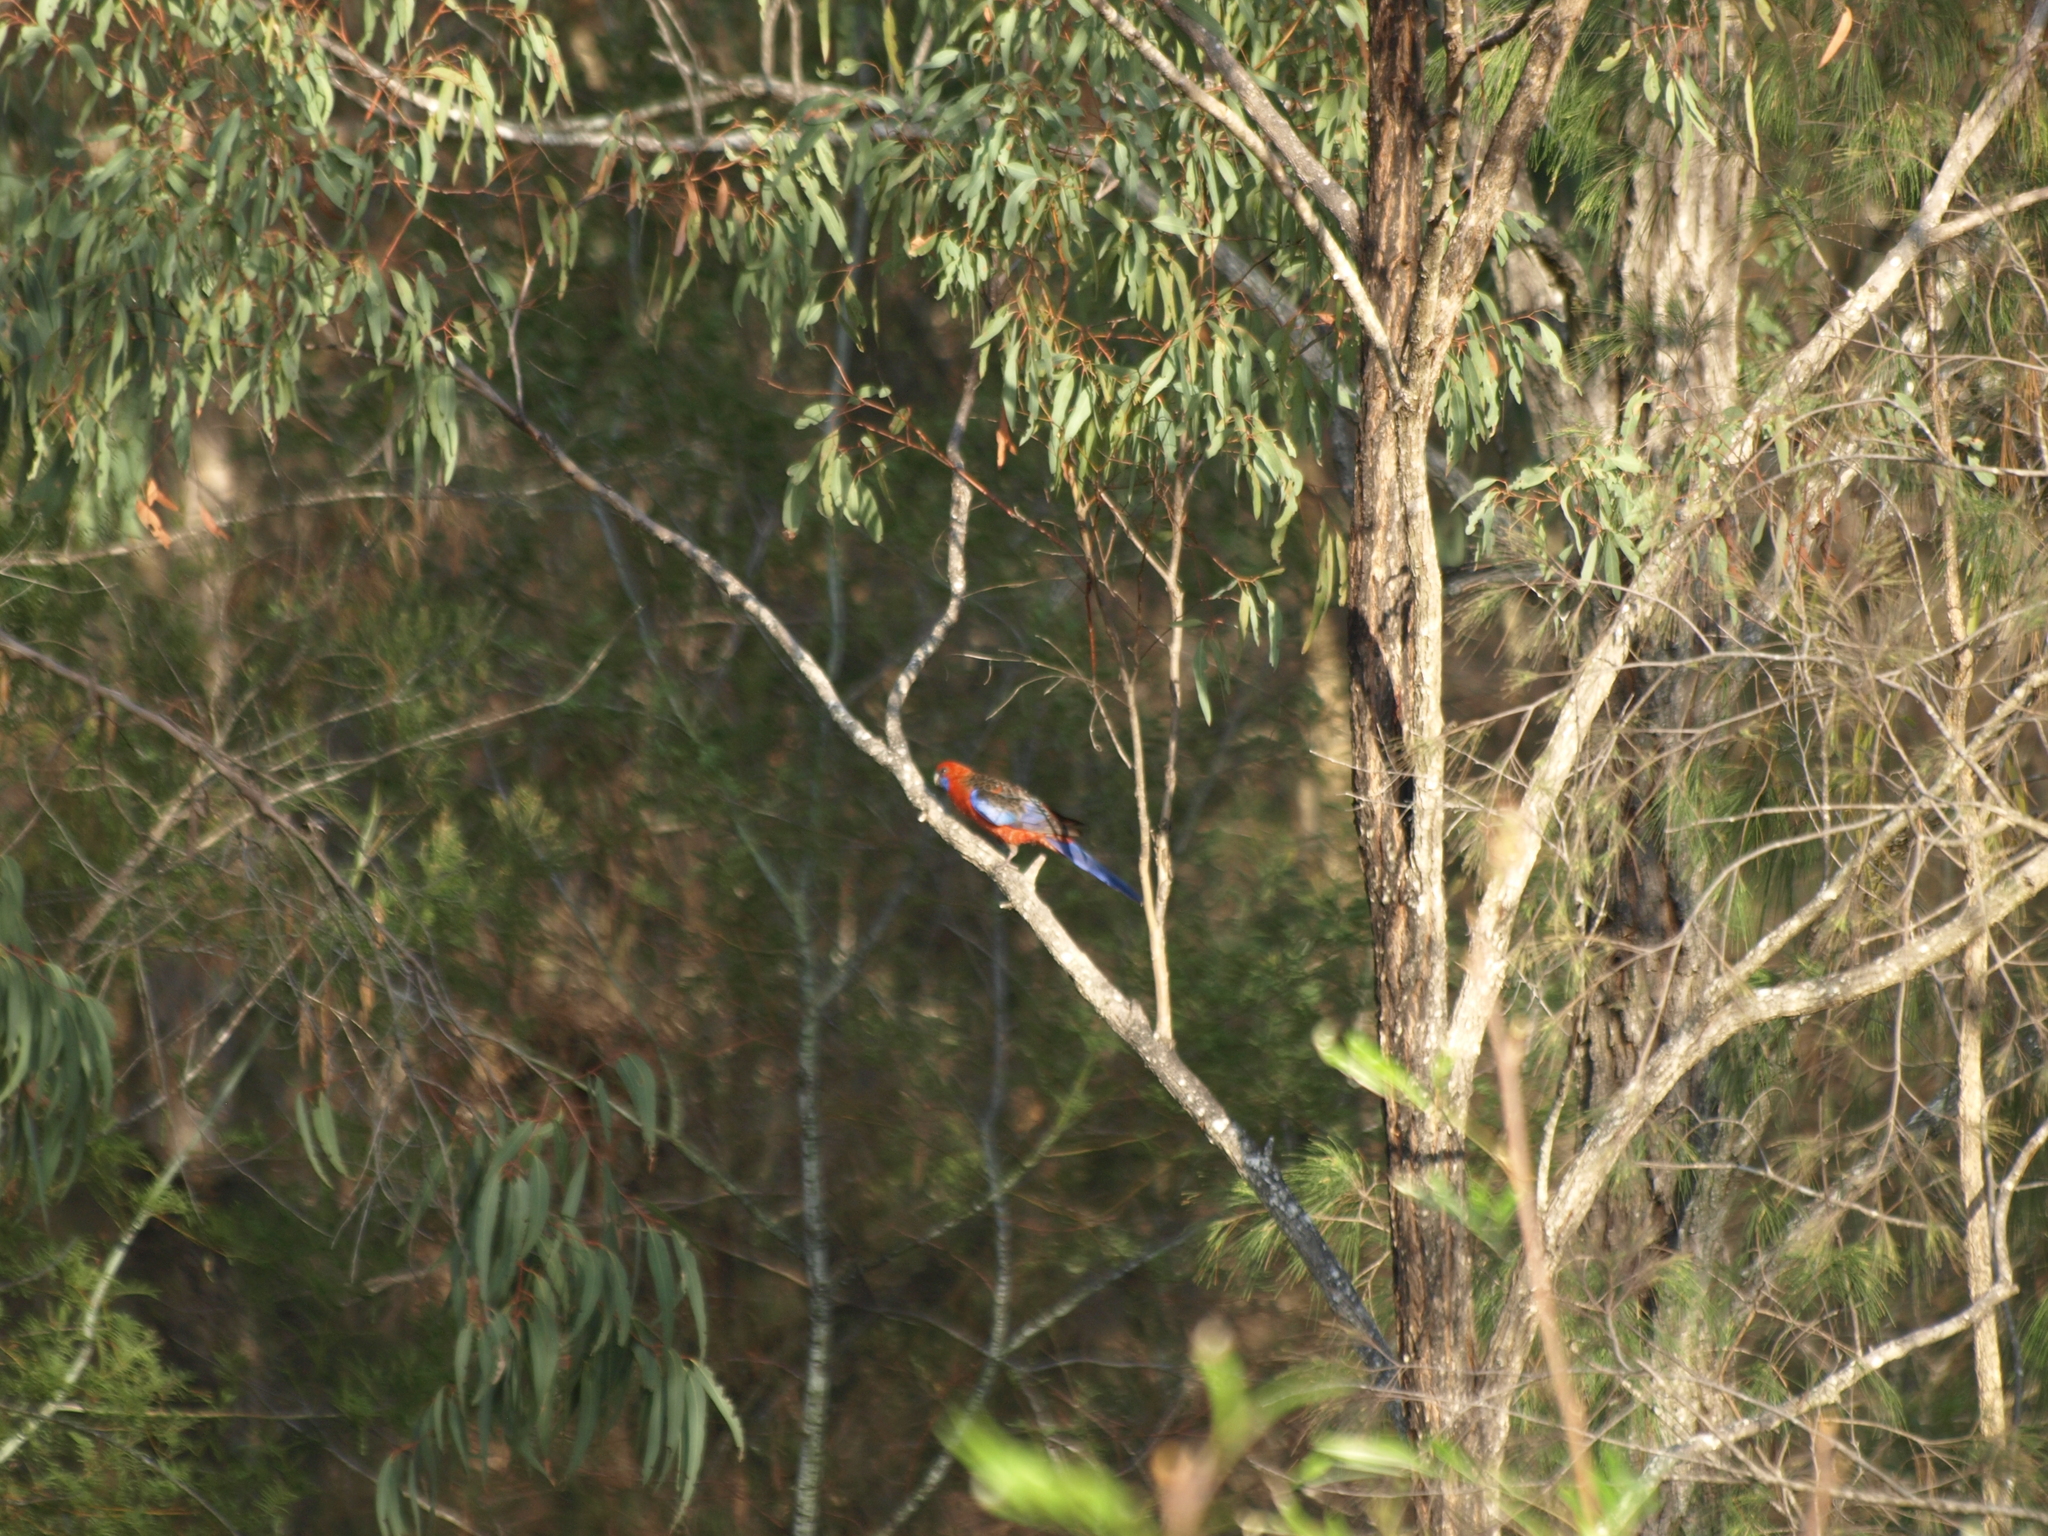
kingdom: Animalia
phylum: Chordata
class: Aves
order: Psittaciformes
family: Psittacidae
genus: Platycercus
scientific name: Platycercus elegans
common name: Crimson rosella
